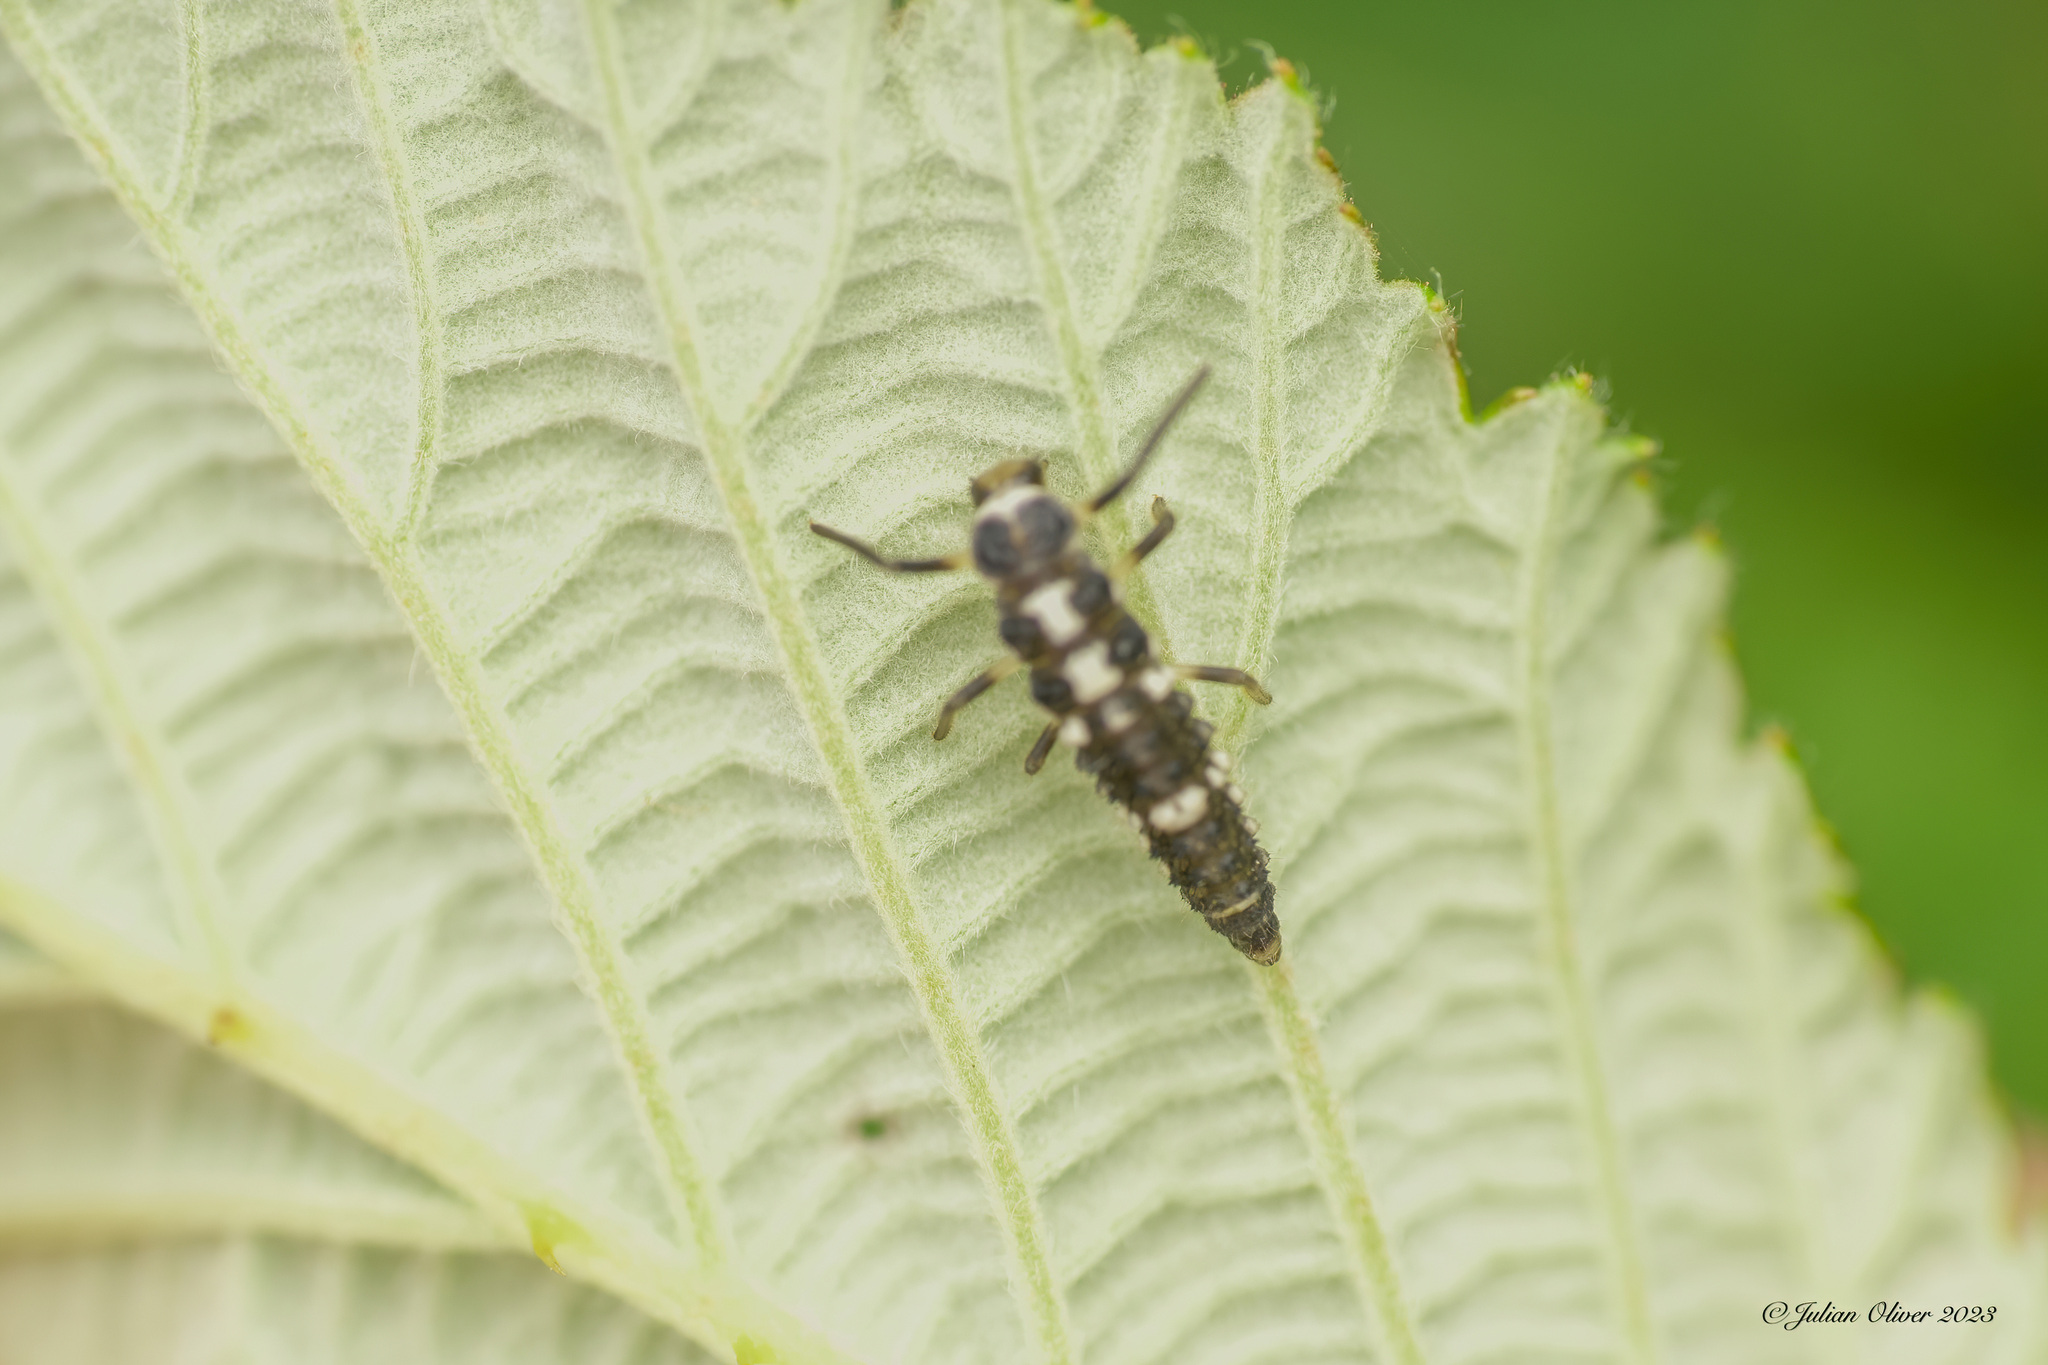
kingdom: Animalia
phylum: Arthropoda
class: Insecta
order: Coleoptera
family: Coccinellidae
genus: Propylaea
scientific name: Propylaea quatuordecimpunctata
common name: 14-spotted ladybird beetle
